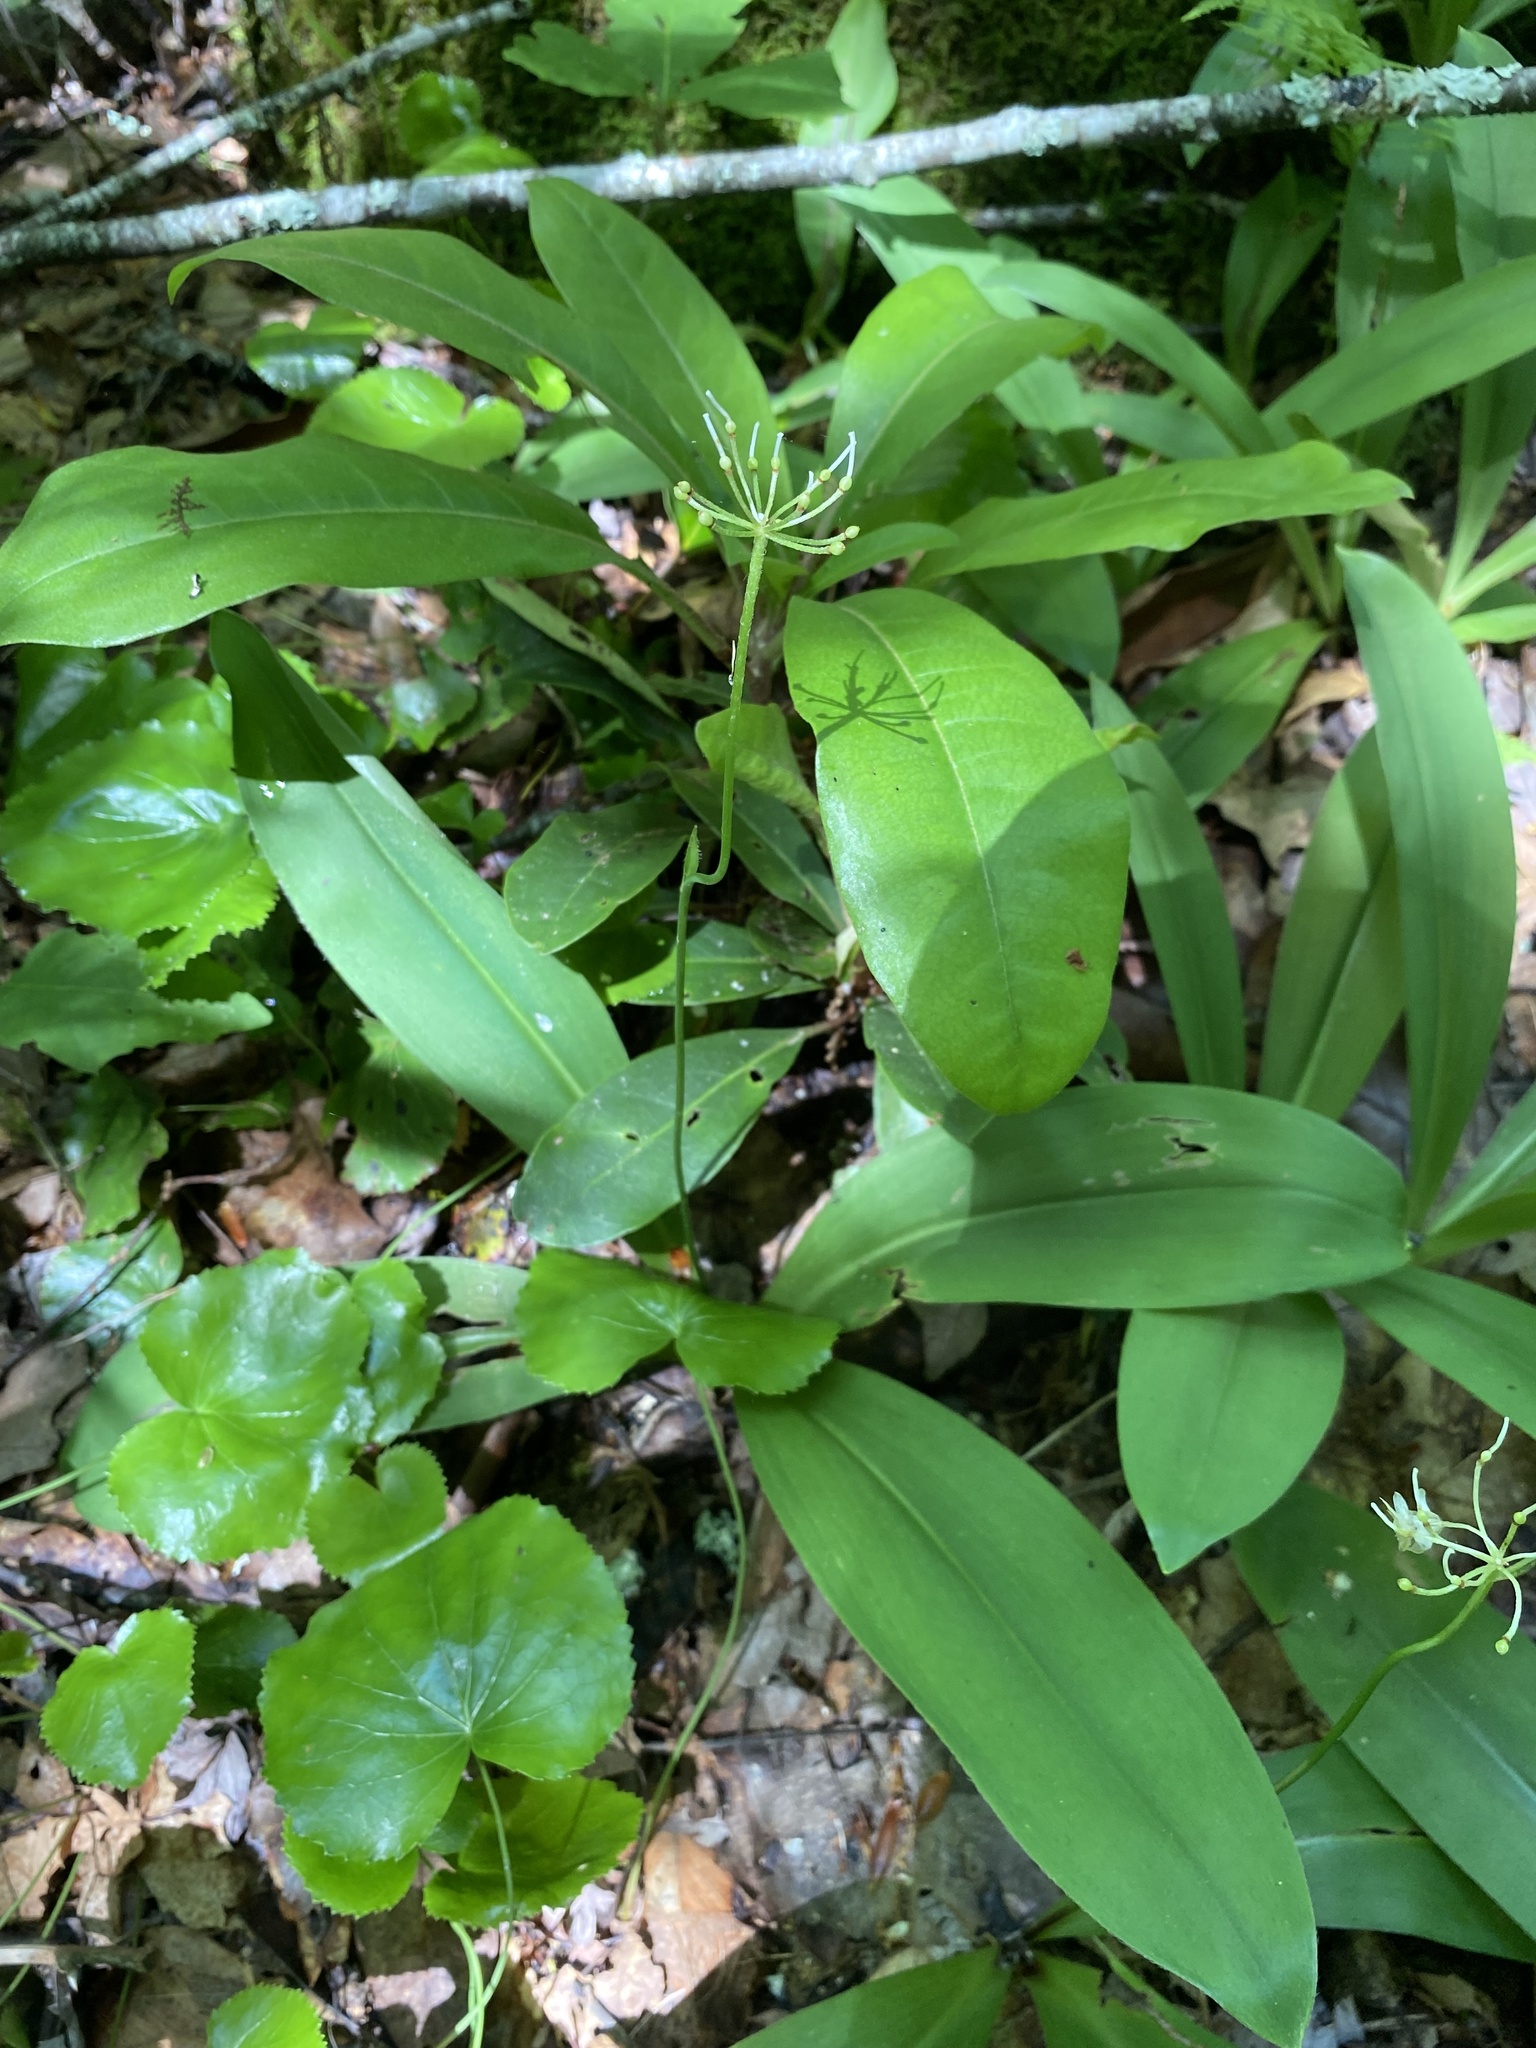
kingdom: Plantae
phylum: Tracheophyta
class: Liliopsida
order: Liliales
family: Liliaceae
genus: Clintonia
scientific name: Clintonia umbellulata
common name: Speckle wood-lily
